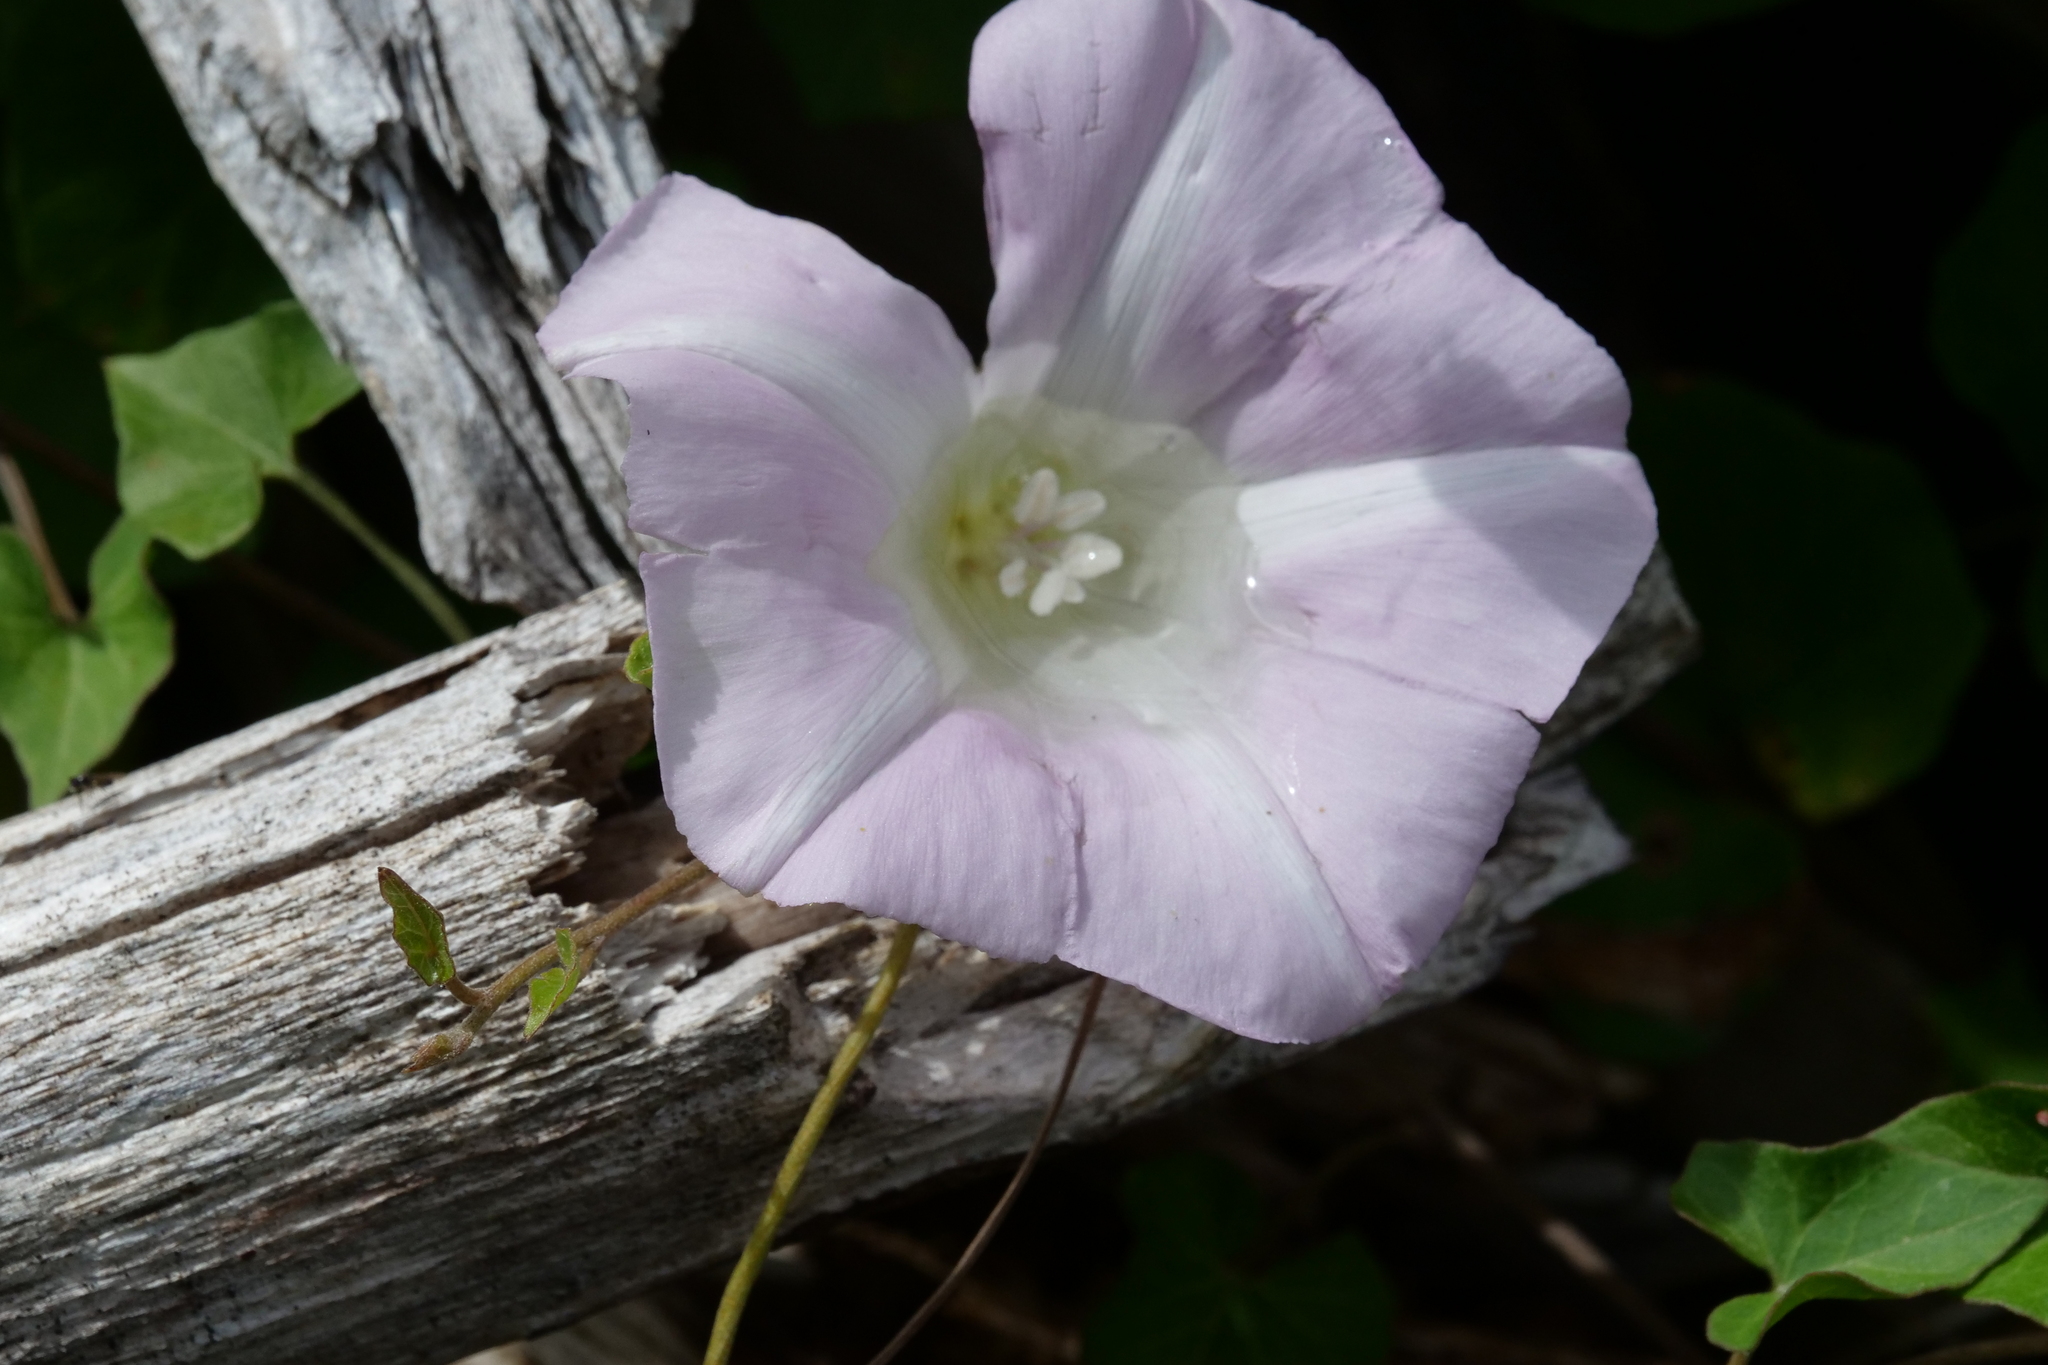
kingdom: Plantae
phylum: Tracheophyta
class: Magnoliopsida
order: Solanales
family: Convolvulaceae
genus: Calystegia
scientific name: Calystegia soldanella
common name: Sea bindweed
